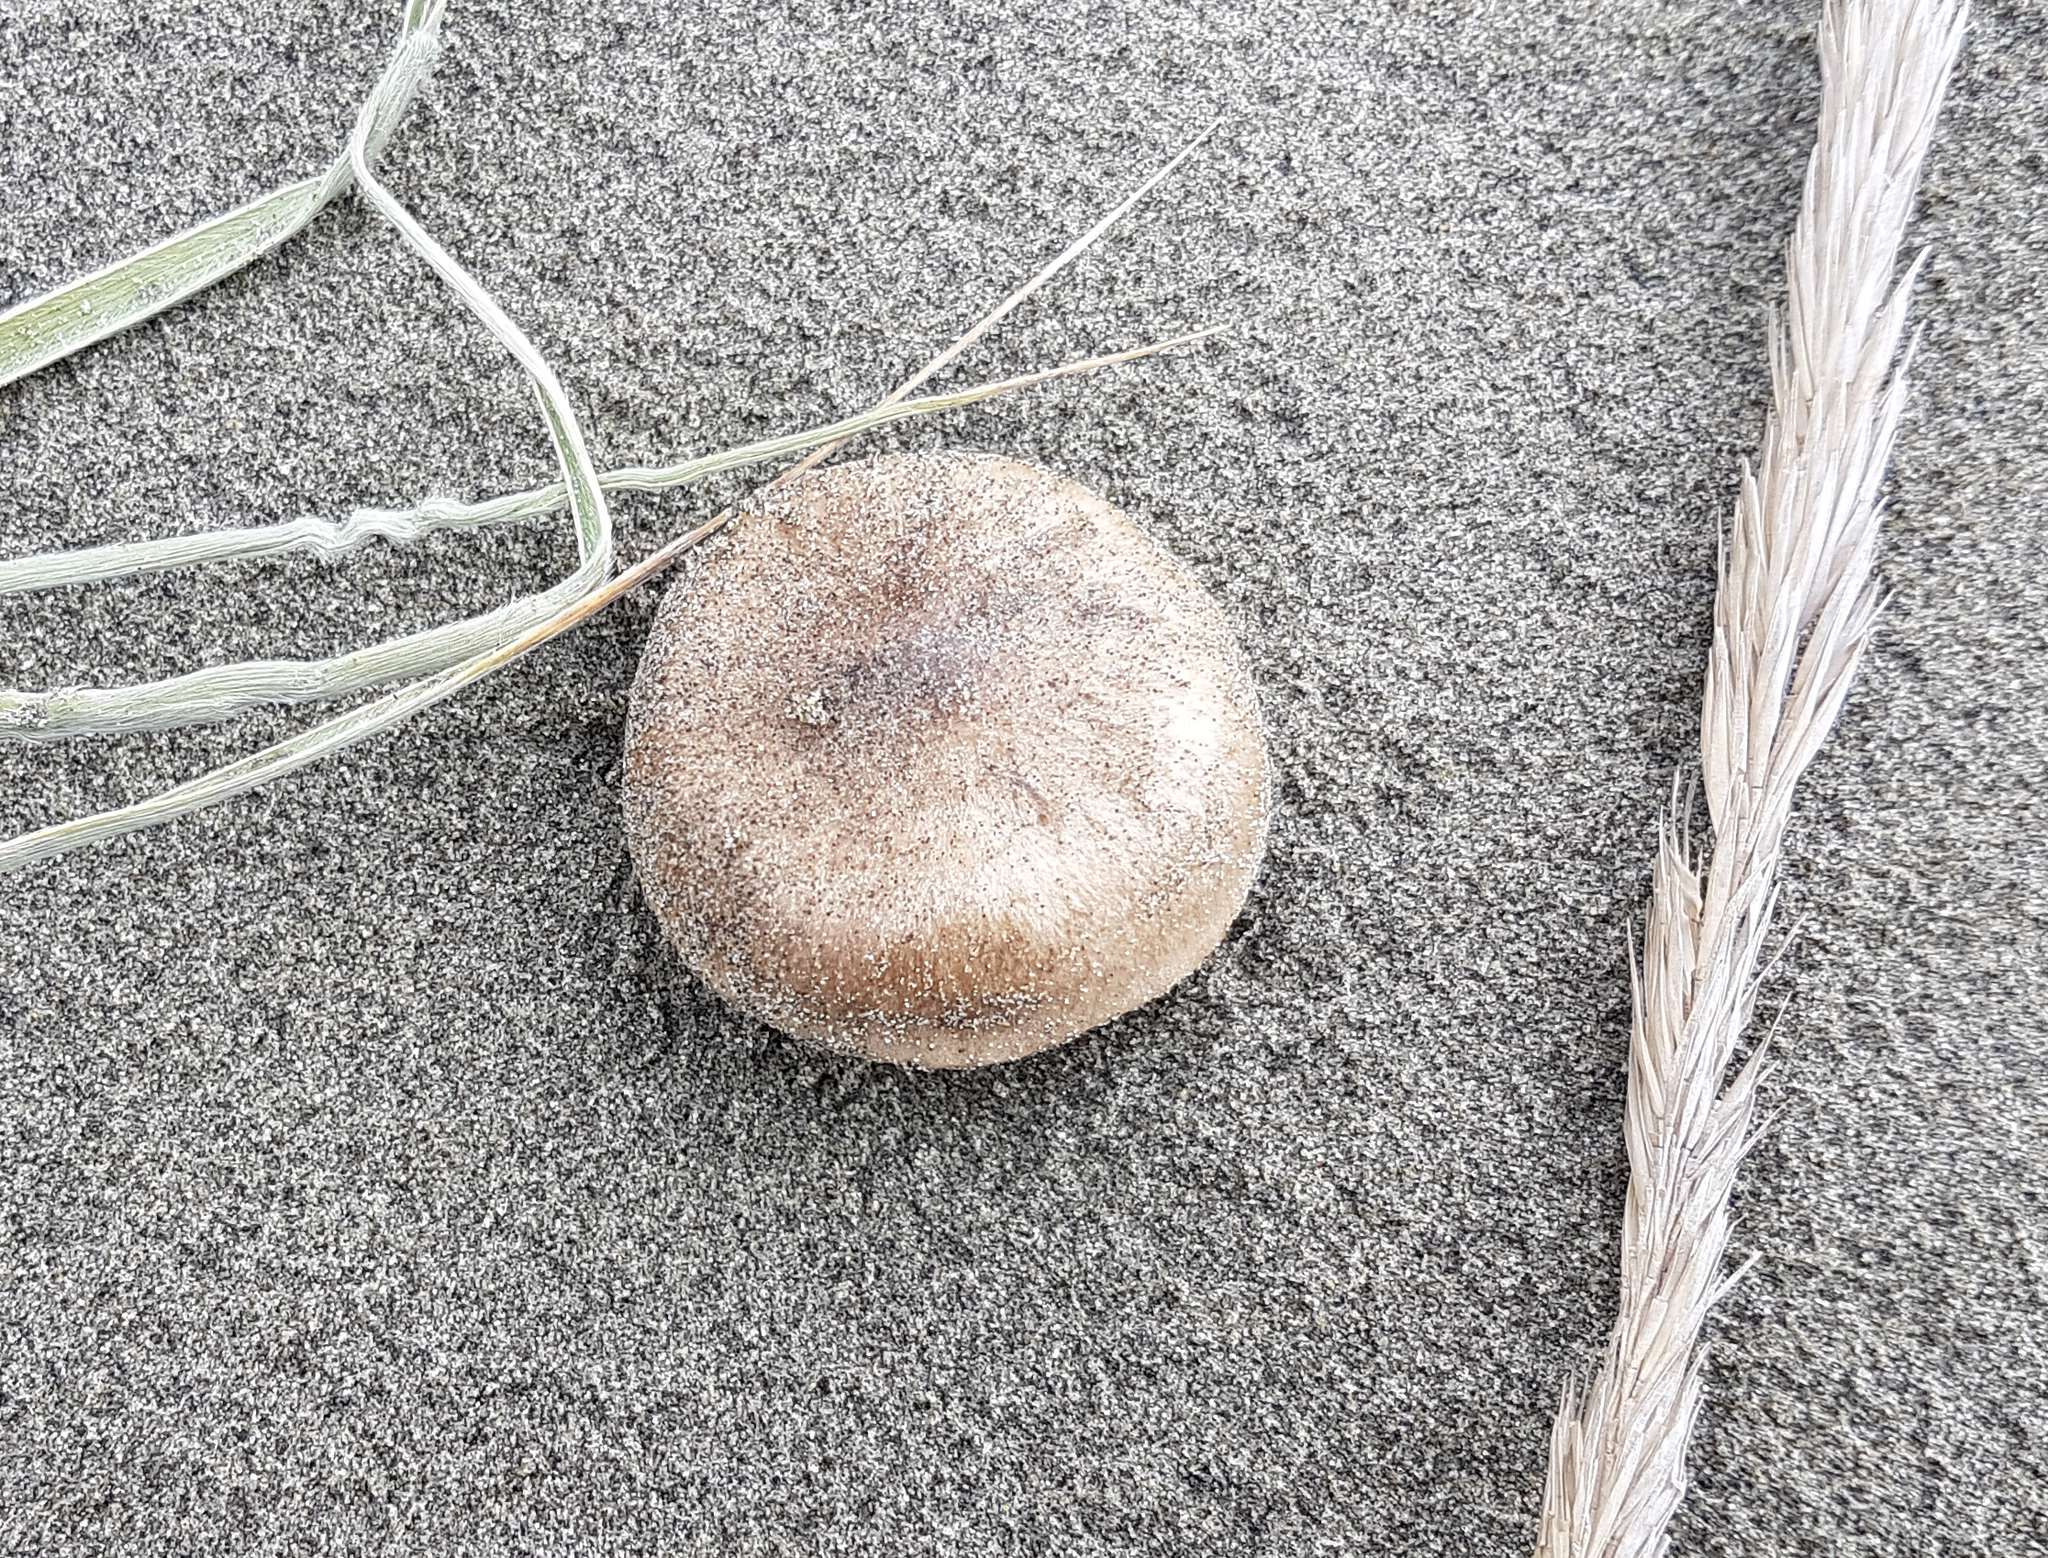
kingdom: Fungi
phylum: Basidiomycota
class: Agaricomycetes
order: Agaricales
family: Tricholomataceae
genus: Melanoleuca
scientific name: Melanoleuca brevipes
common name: Stunted cavalier
